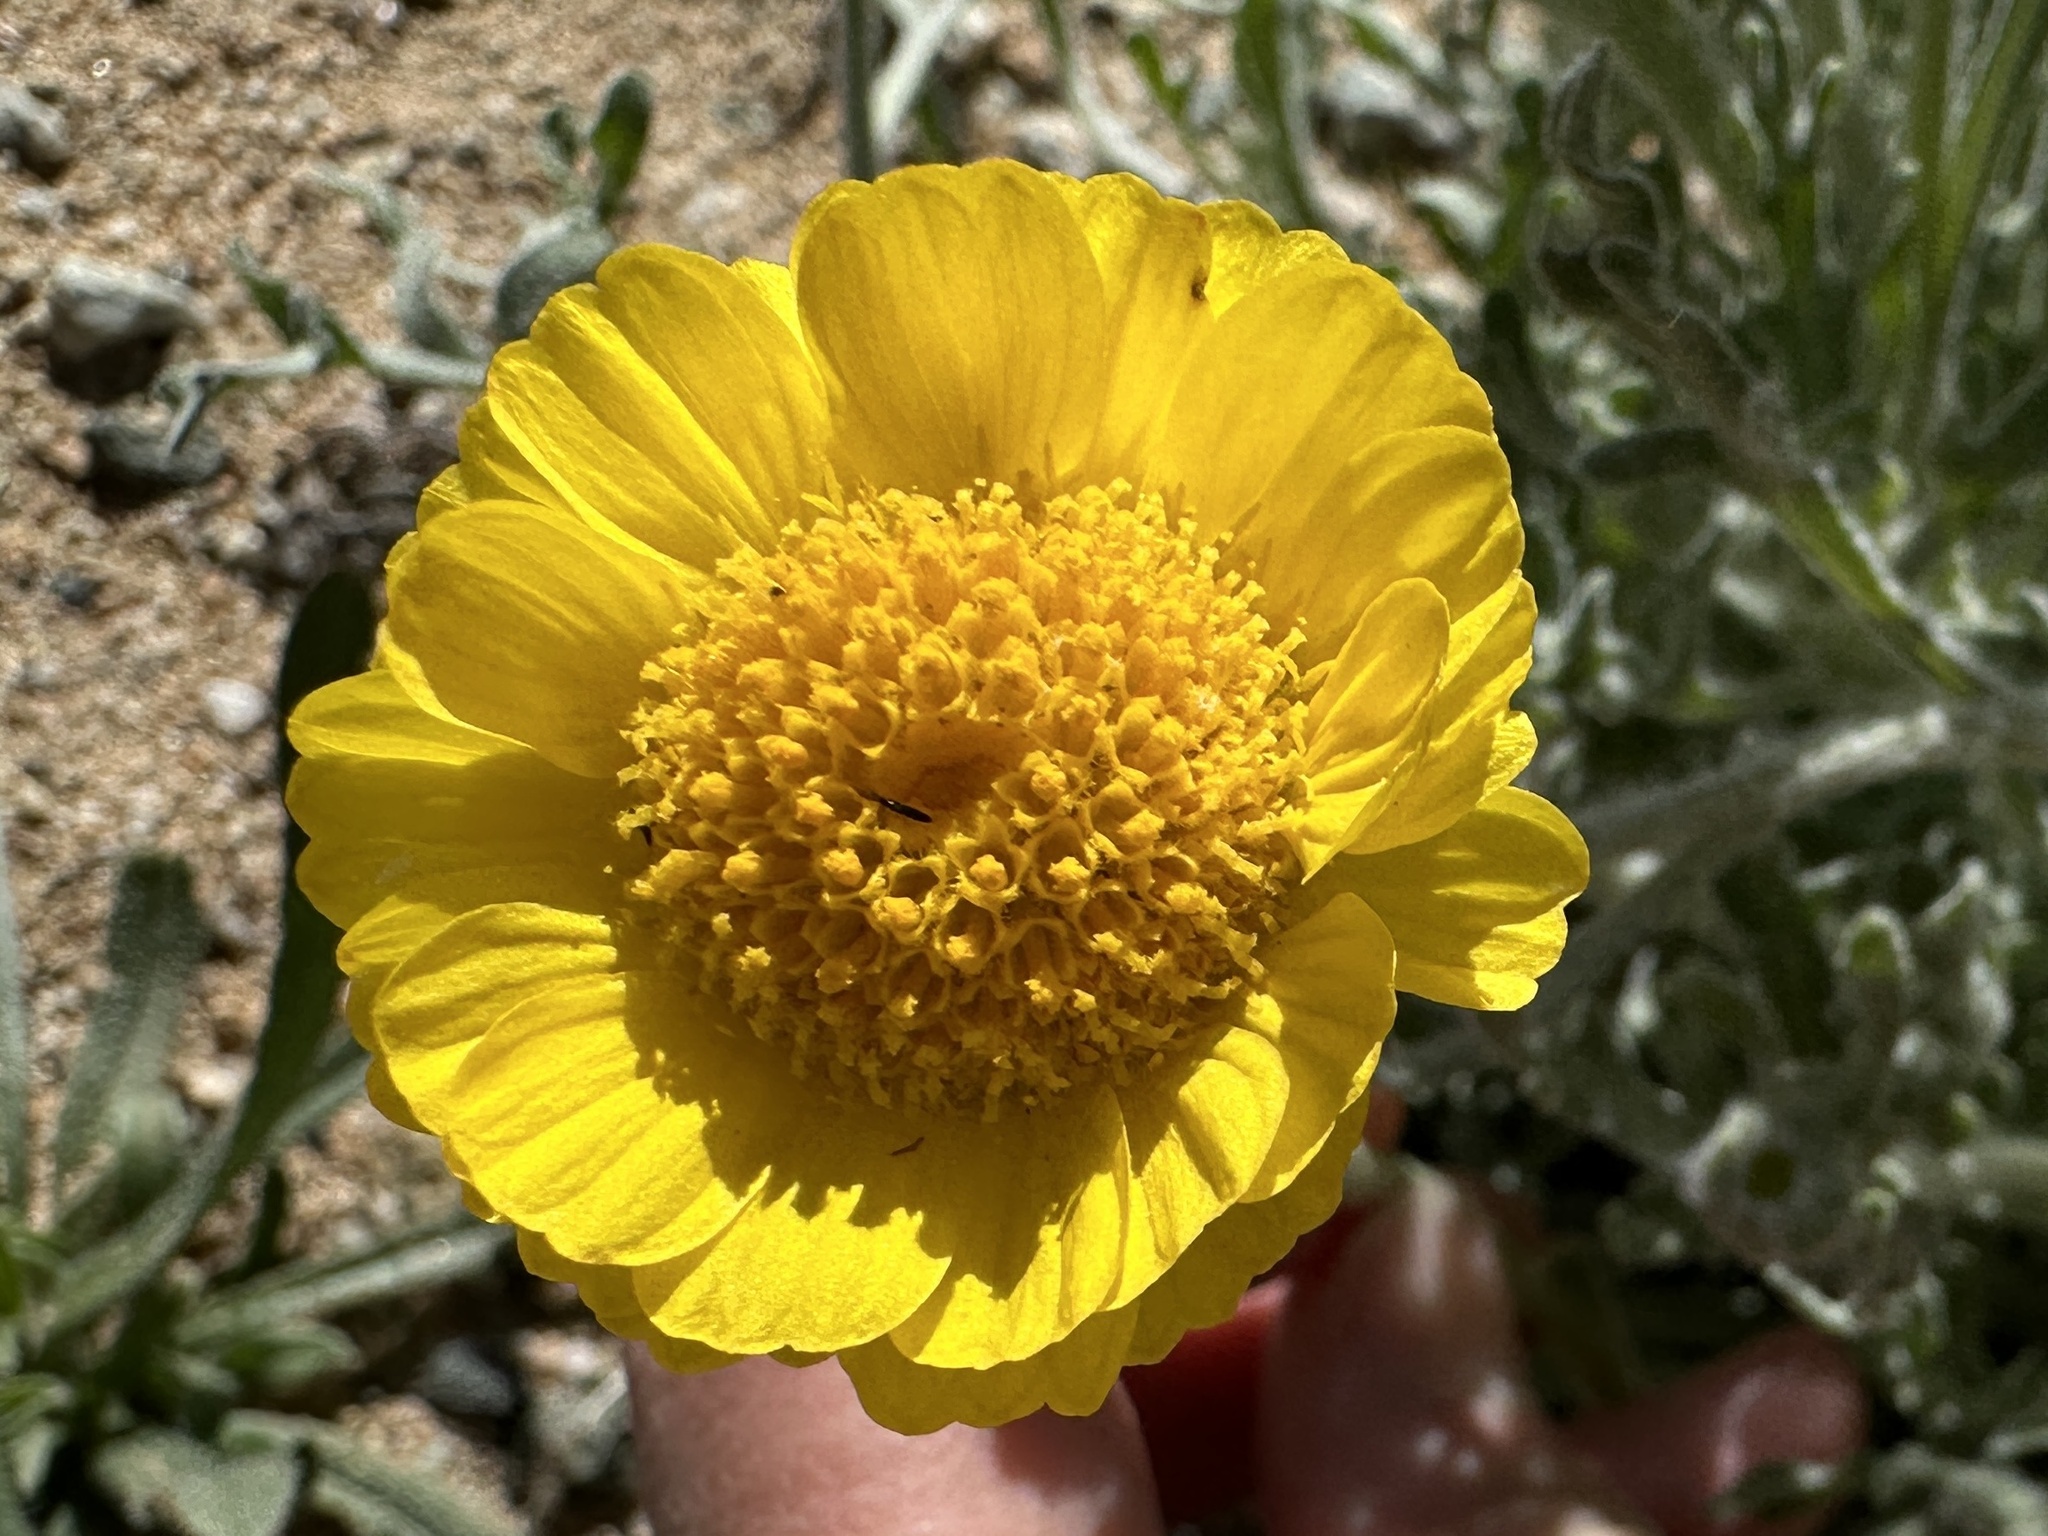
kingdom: Plantae
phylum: Tracheophyta
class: Magnoliopsida
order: Asterales
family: Asteraceae
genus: Baileya
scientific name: Baileya multiradiata
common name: Desert-marigold
